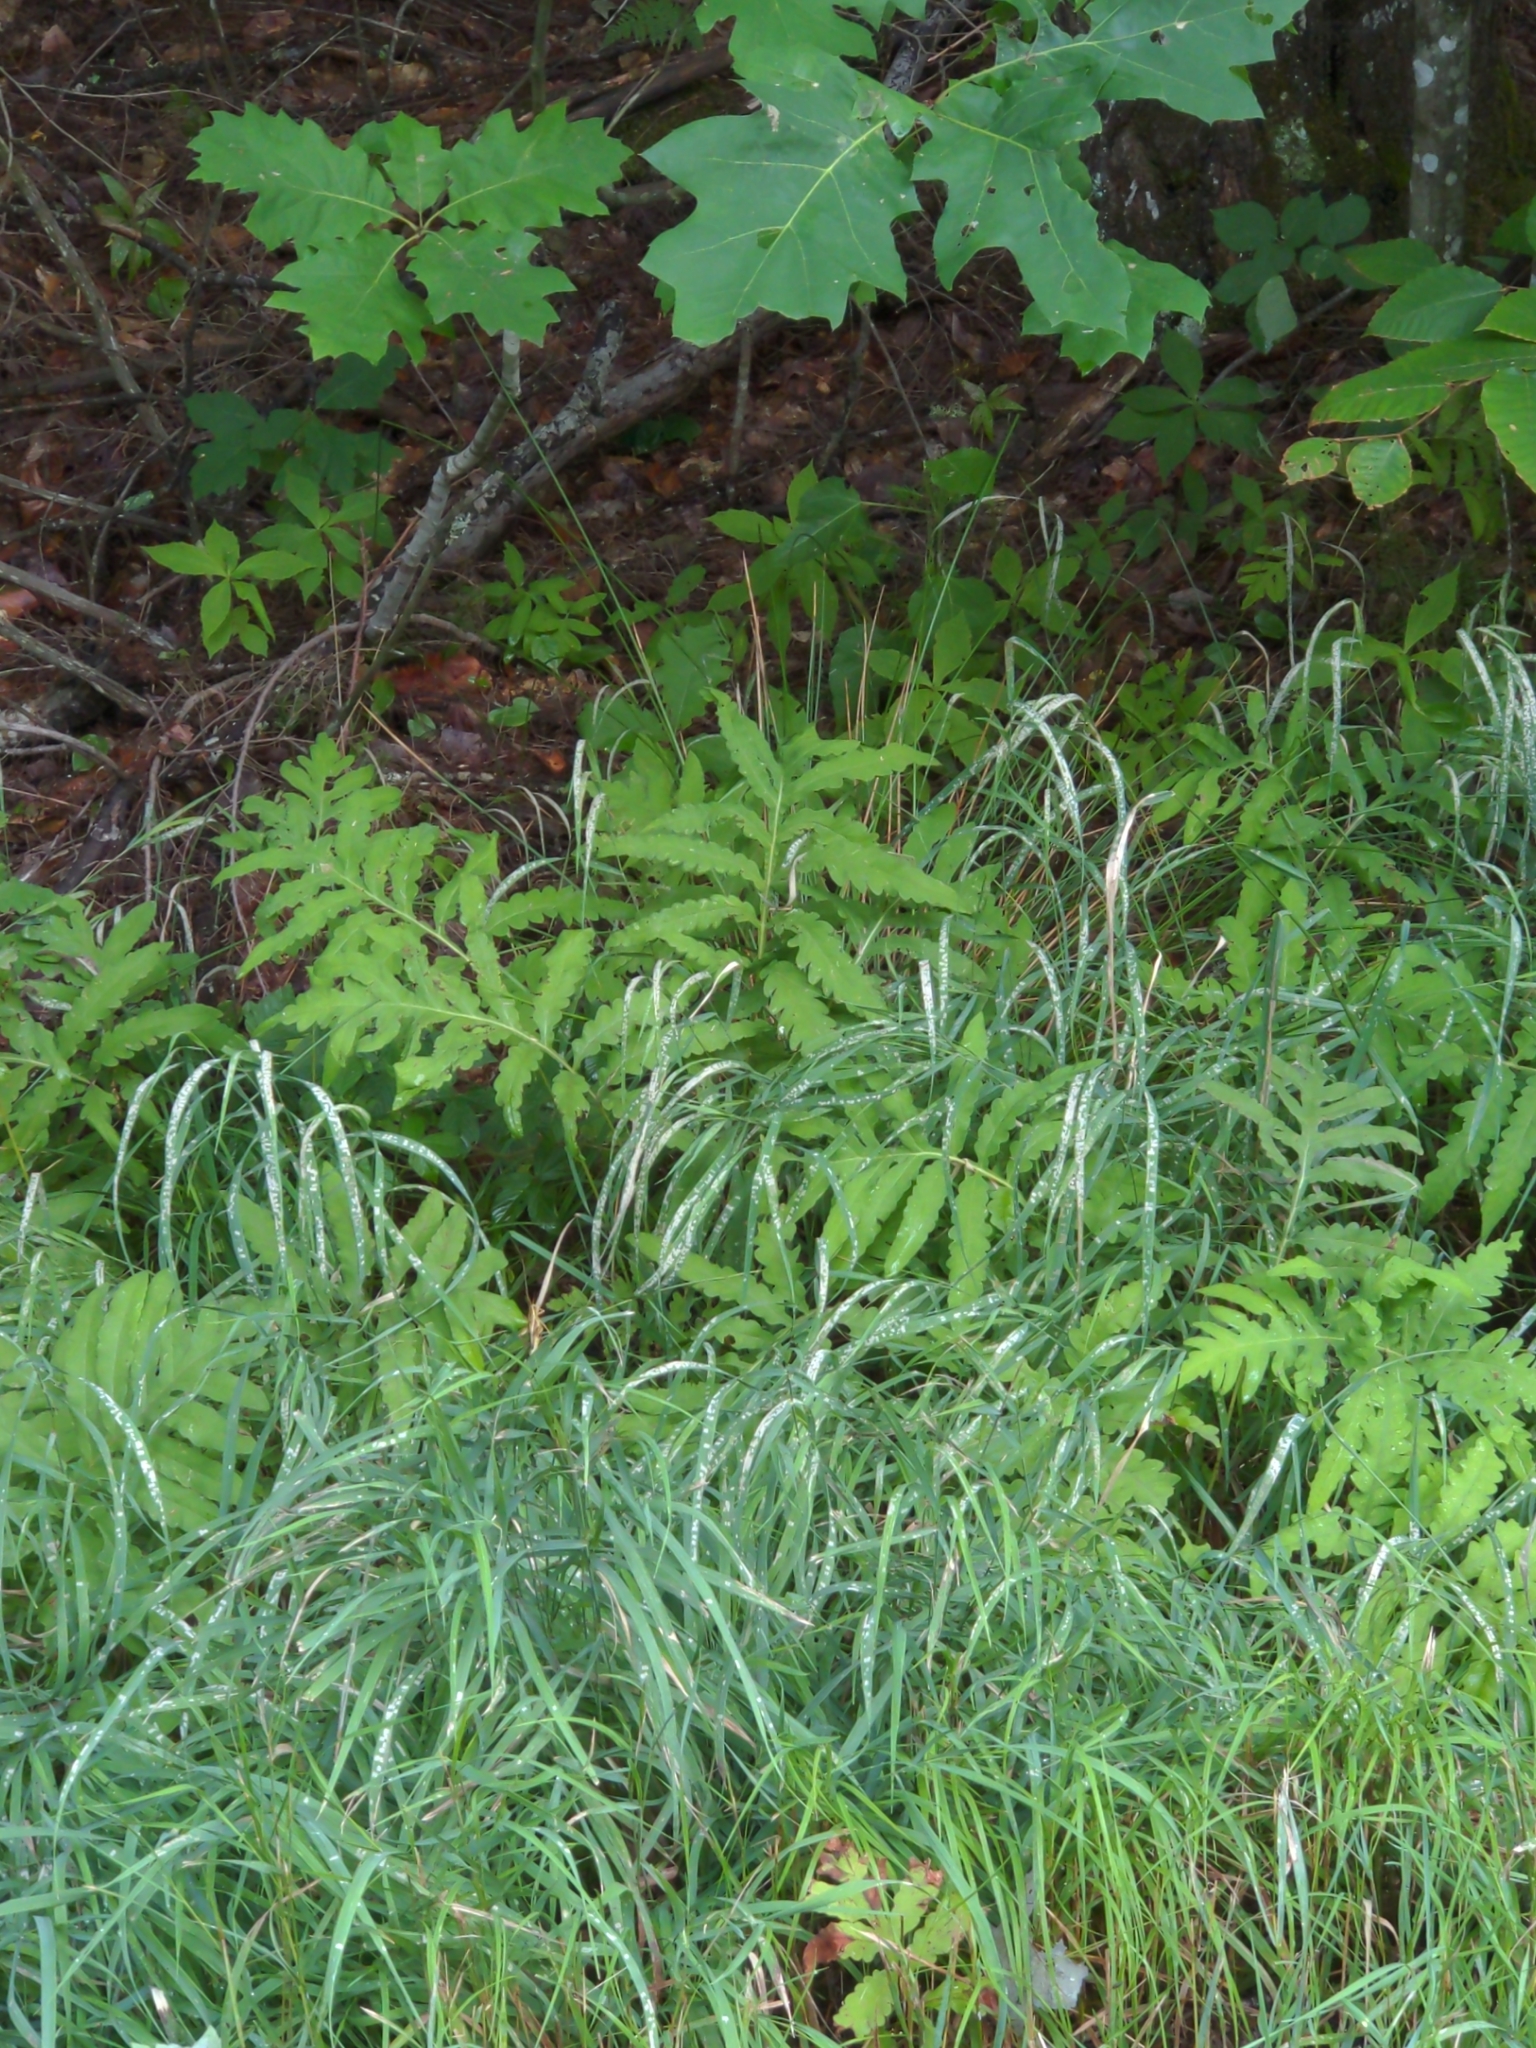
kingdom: Plantae
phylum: Tracheophyta
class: Polypodiopsida
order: Polypodiales
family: Onocleaceae
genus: Onoclea
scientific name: Onoclea sensibilis
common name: Sensitive fern
